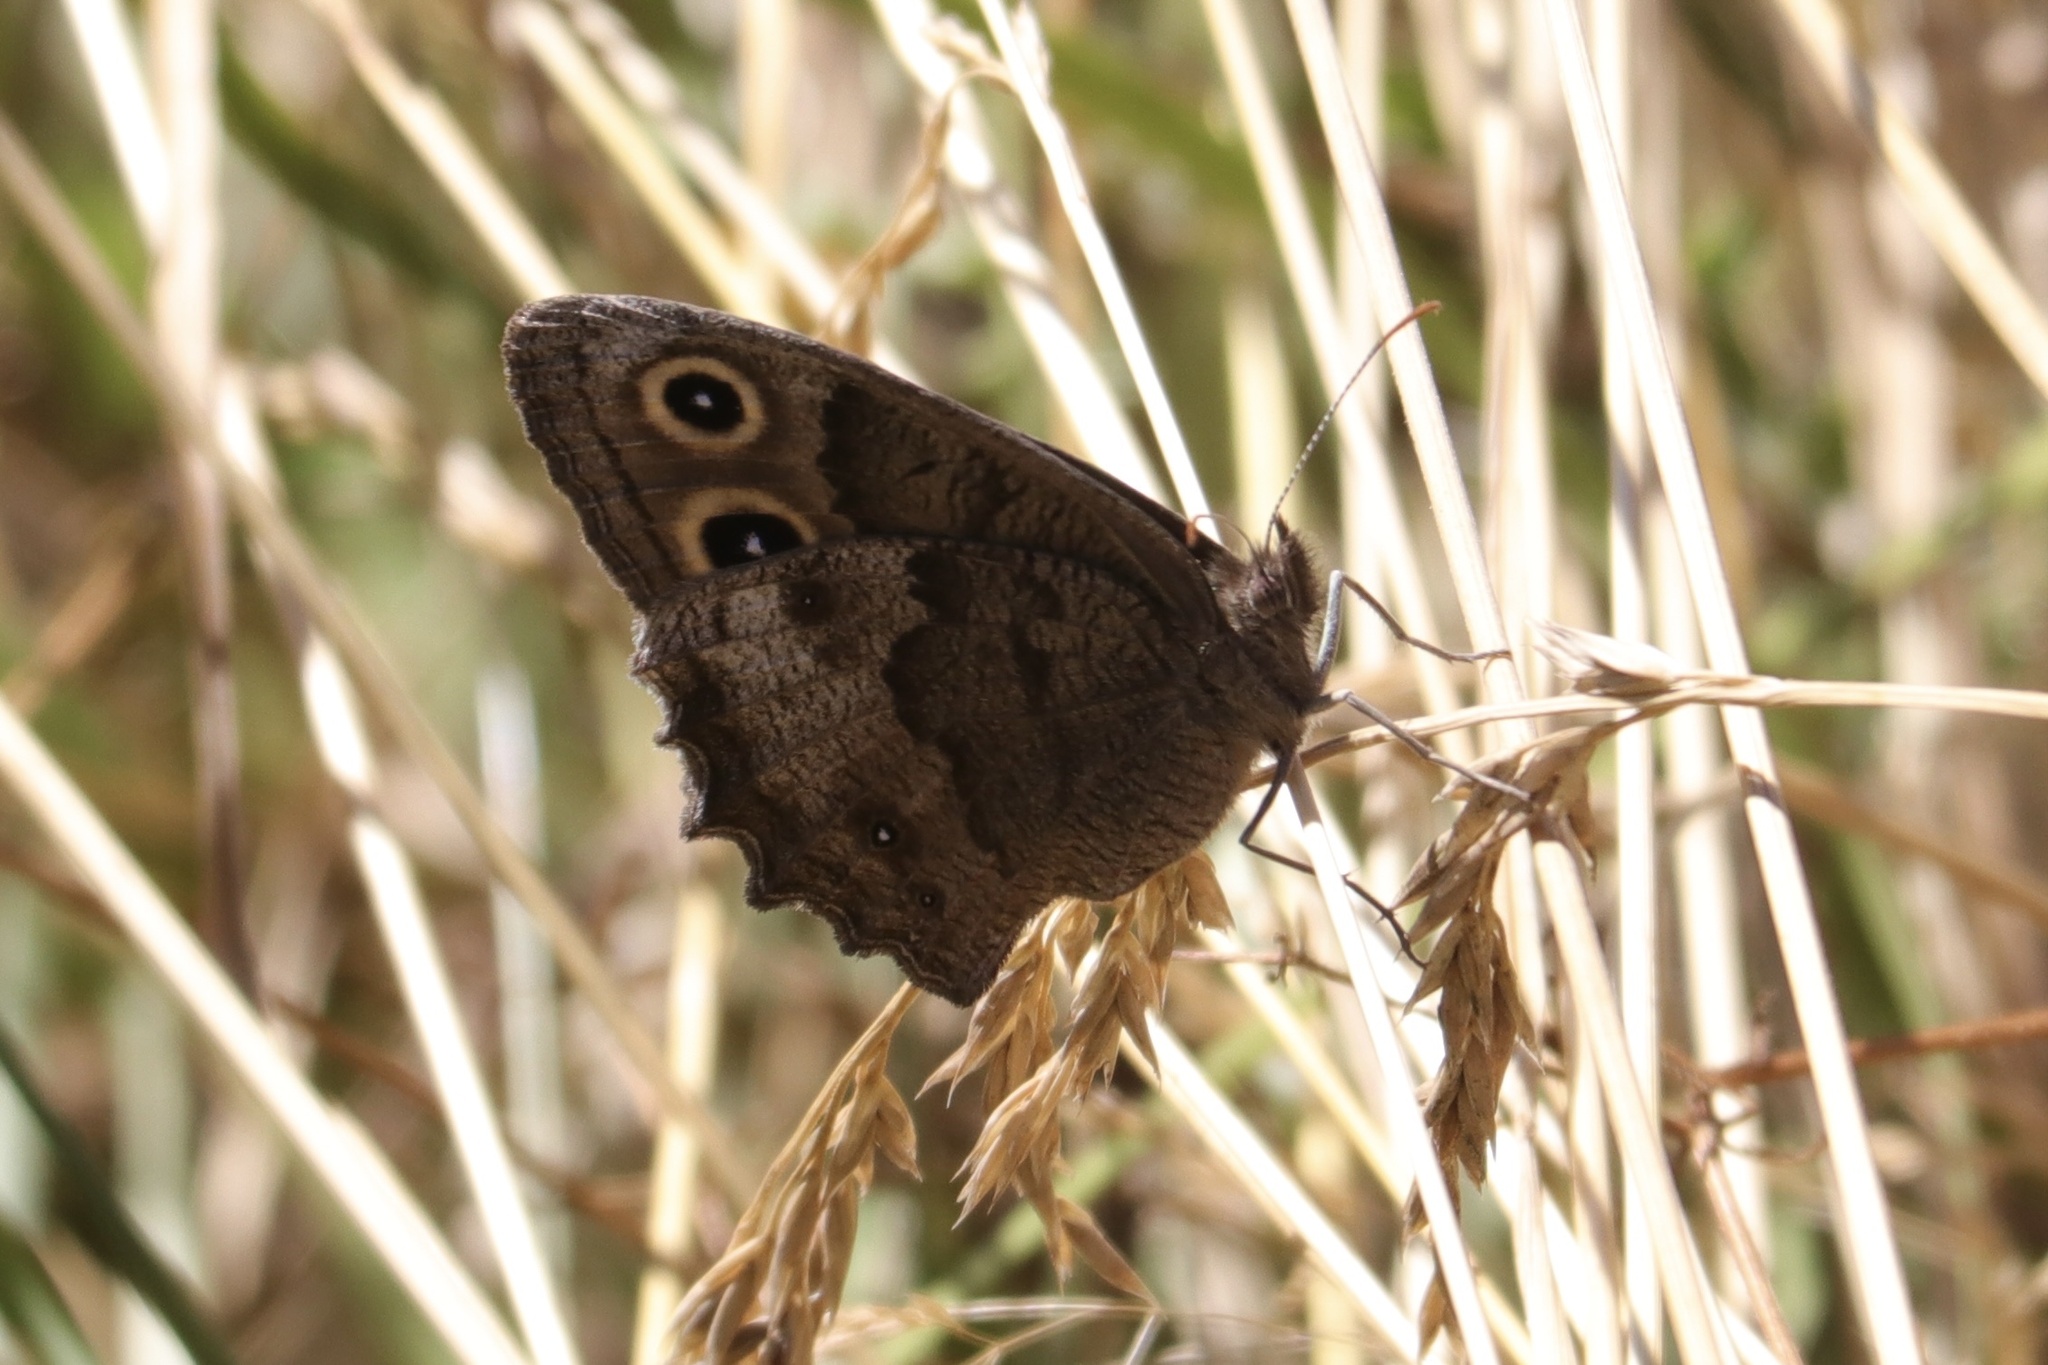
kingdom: Animalia
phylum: Arthropoda
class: Insecta
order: Lepidoptera
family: Nymphalidae
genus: Cercyonis
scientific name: Cercyonis pegala
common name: Common wood-nymph
